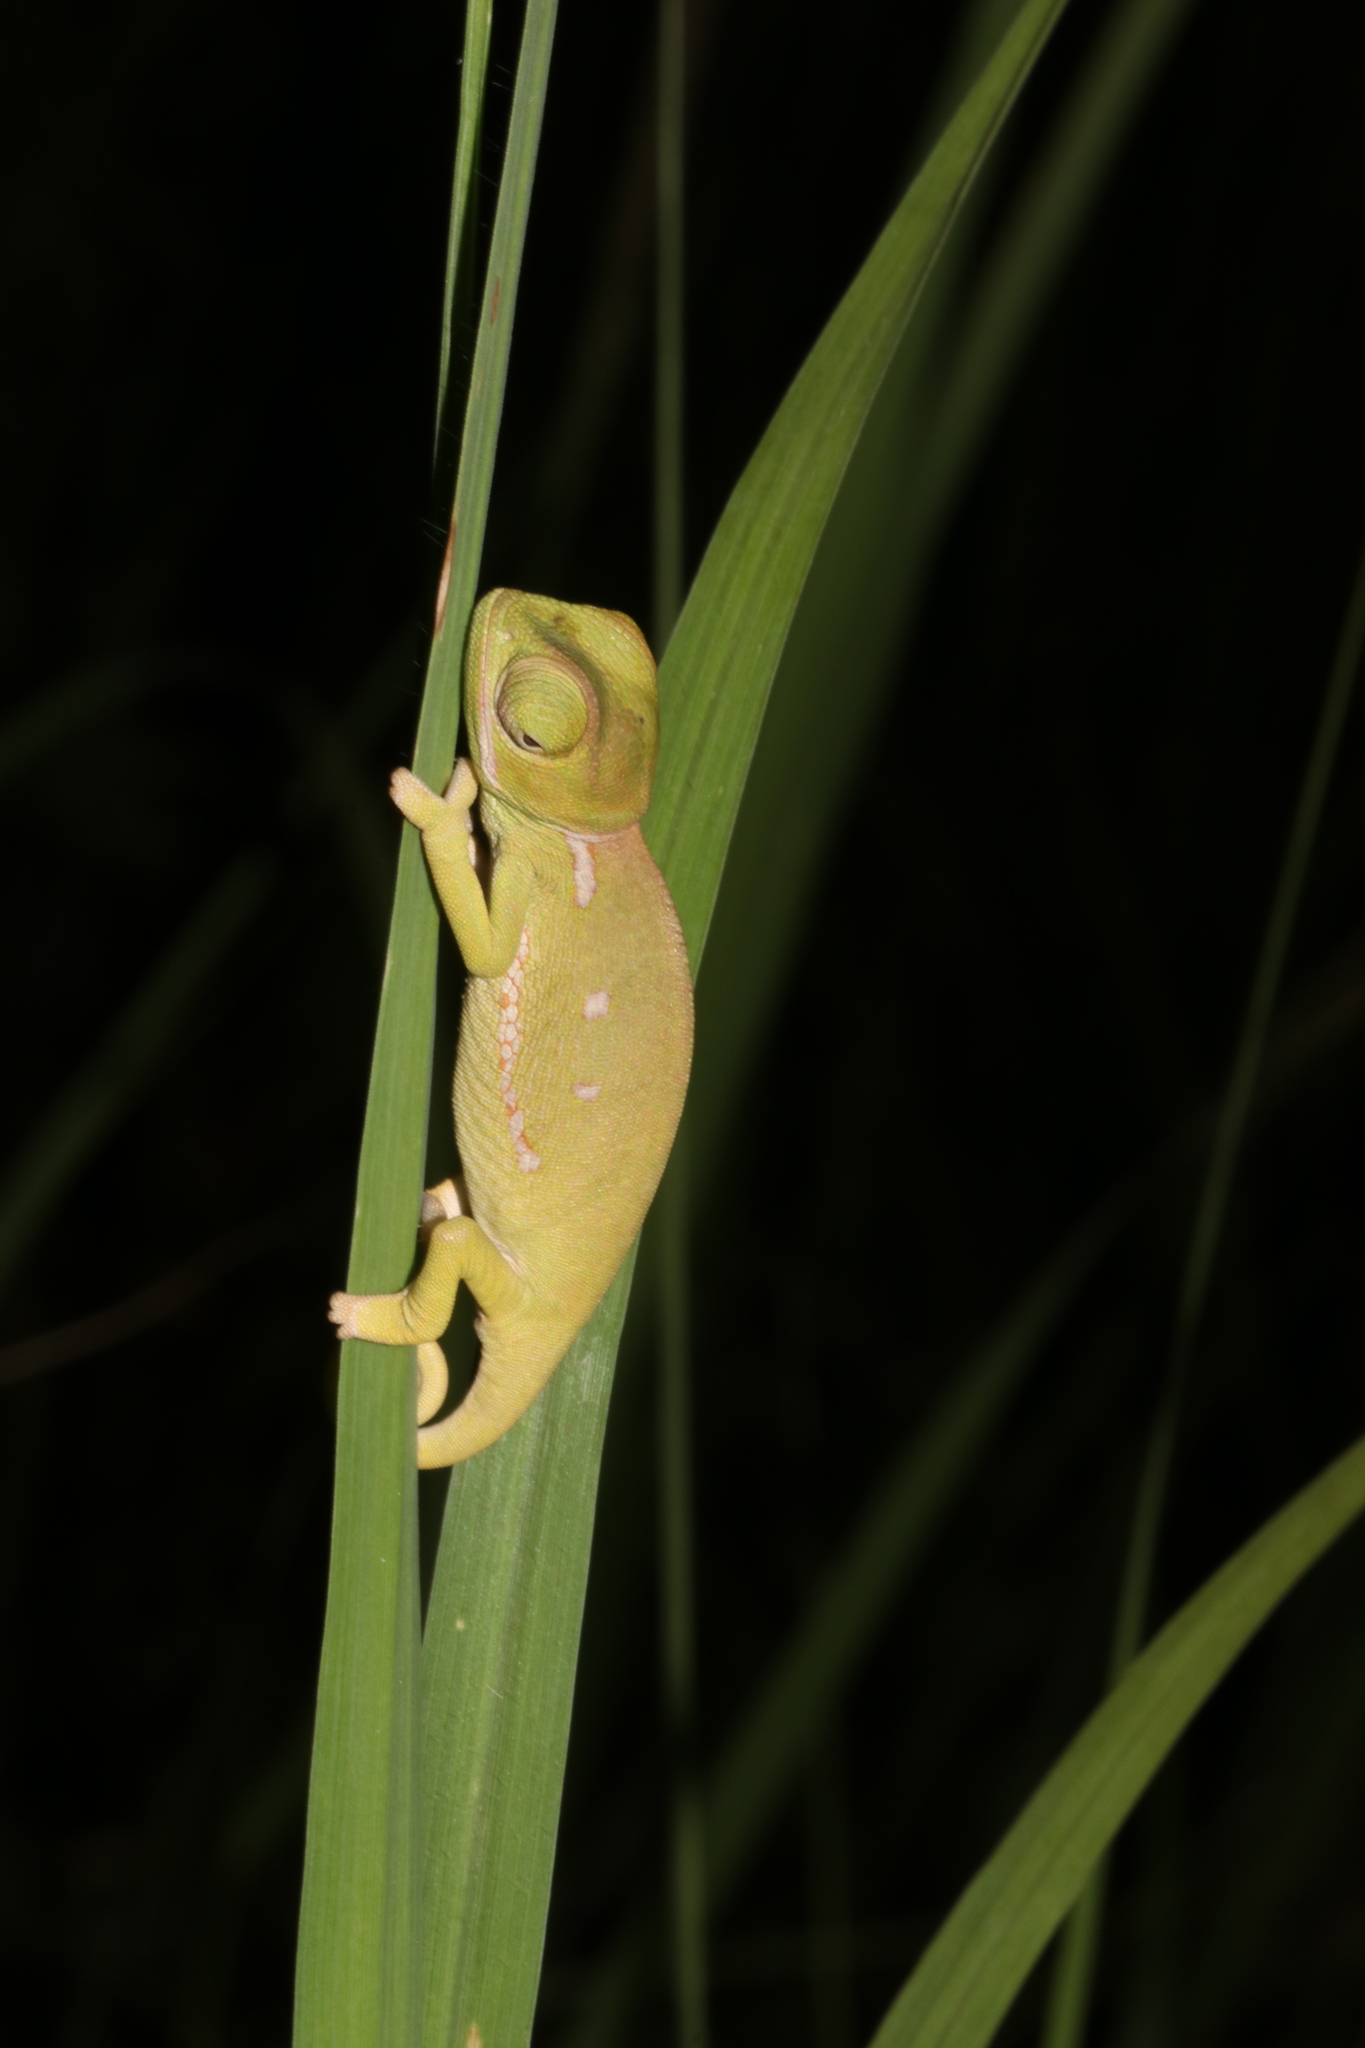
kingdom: Animalia
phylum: Chordata
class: Squamata
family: Chamaeleonidae
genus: Chamaeleo
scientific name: Chamaeleo dilepis
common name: Flapneck chameleon
